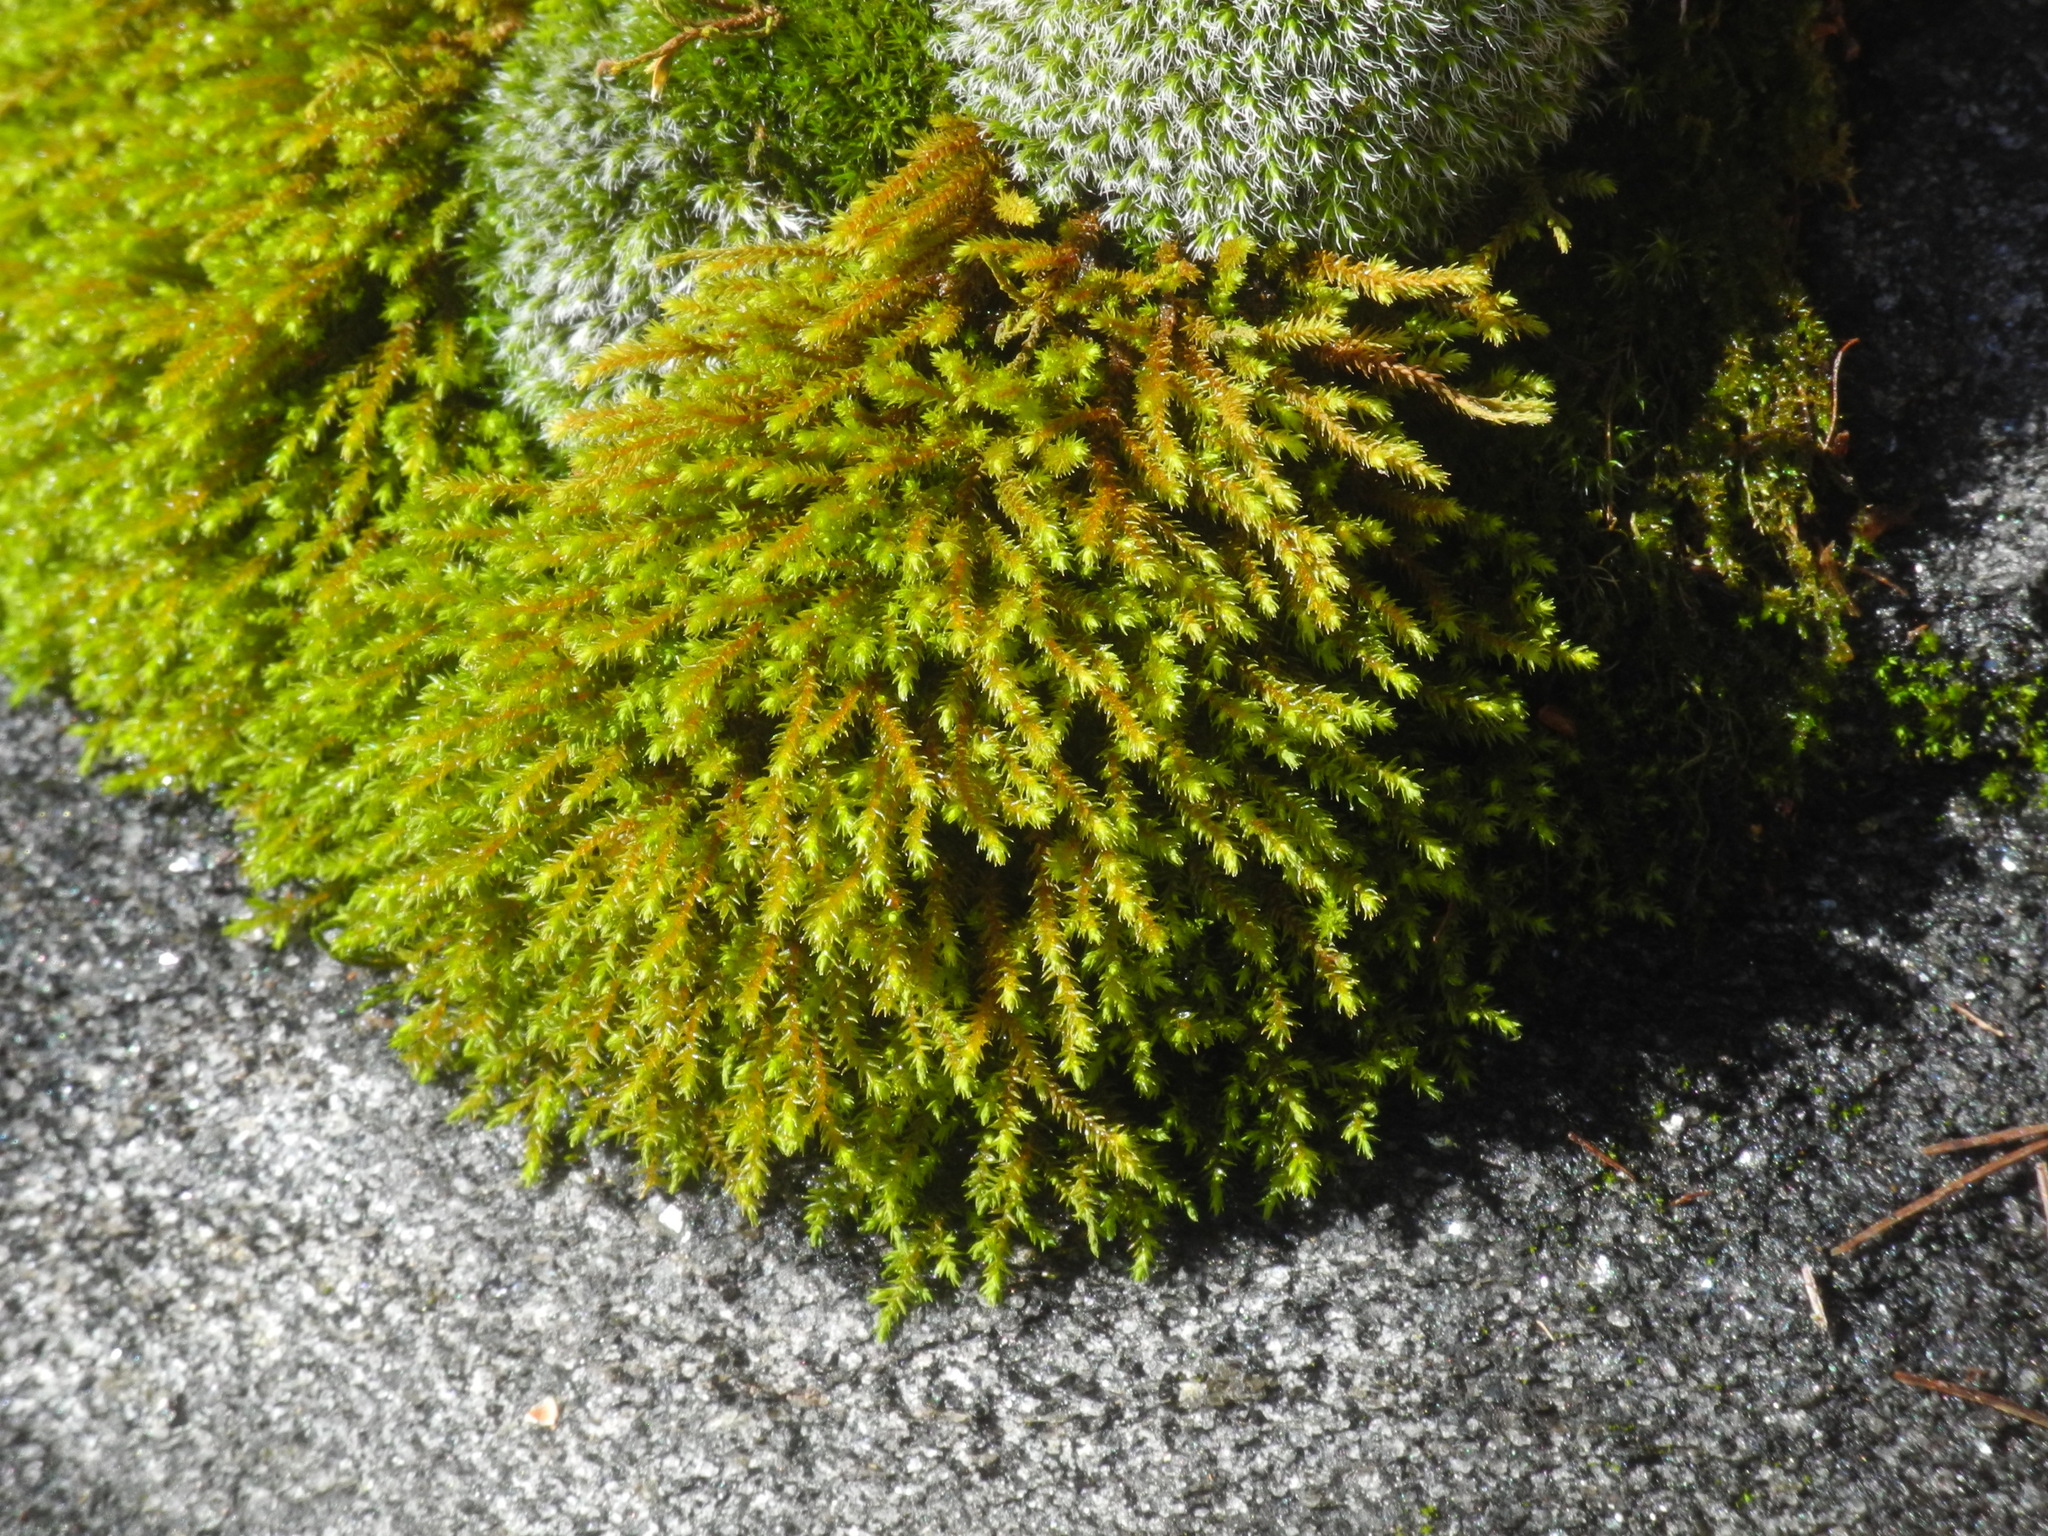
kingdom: Plantae
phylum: Bryophyta
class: Bryopsida
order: Hedwigiales
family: Hedwigiaceae
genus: Hedwigia
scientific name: Hedwigia ciliata
